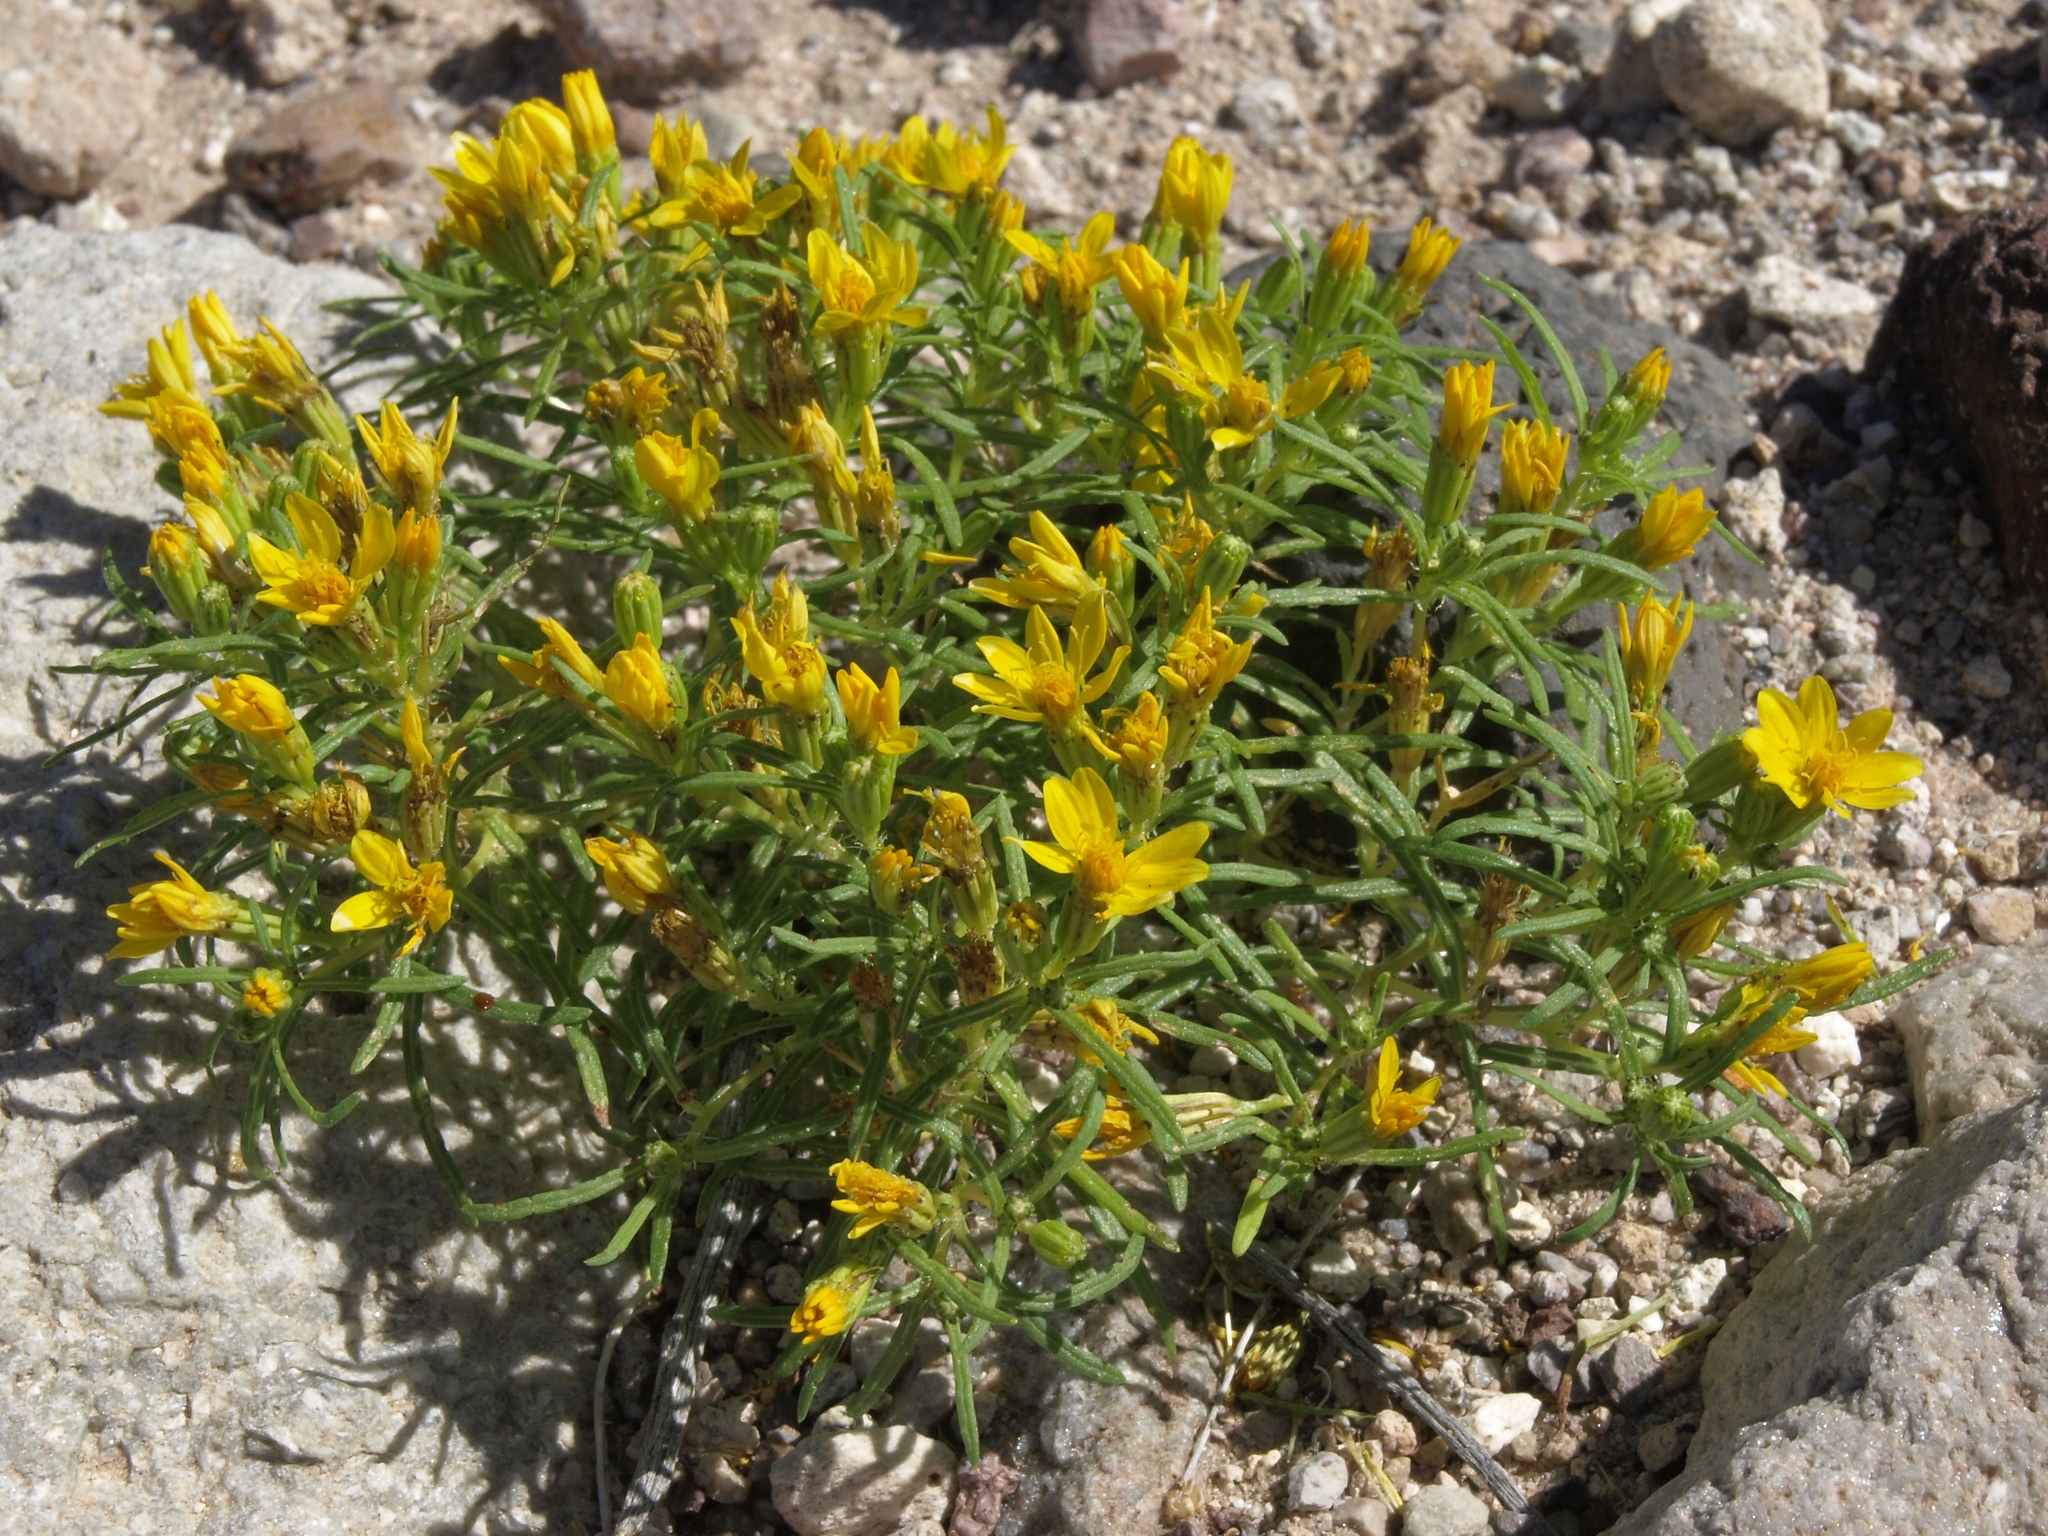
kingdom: Plantae
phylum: Tracheophyta
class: Magnoliopsida
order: Asterales
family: Asteraceae
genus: Pectis
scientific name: Pectis papposa
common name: Many-bristle chinchweed
